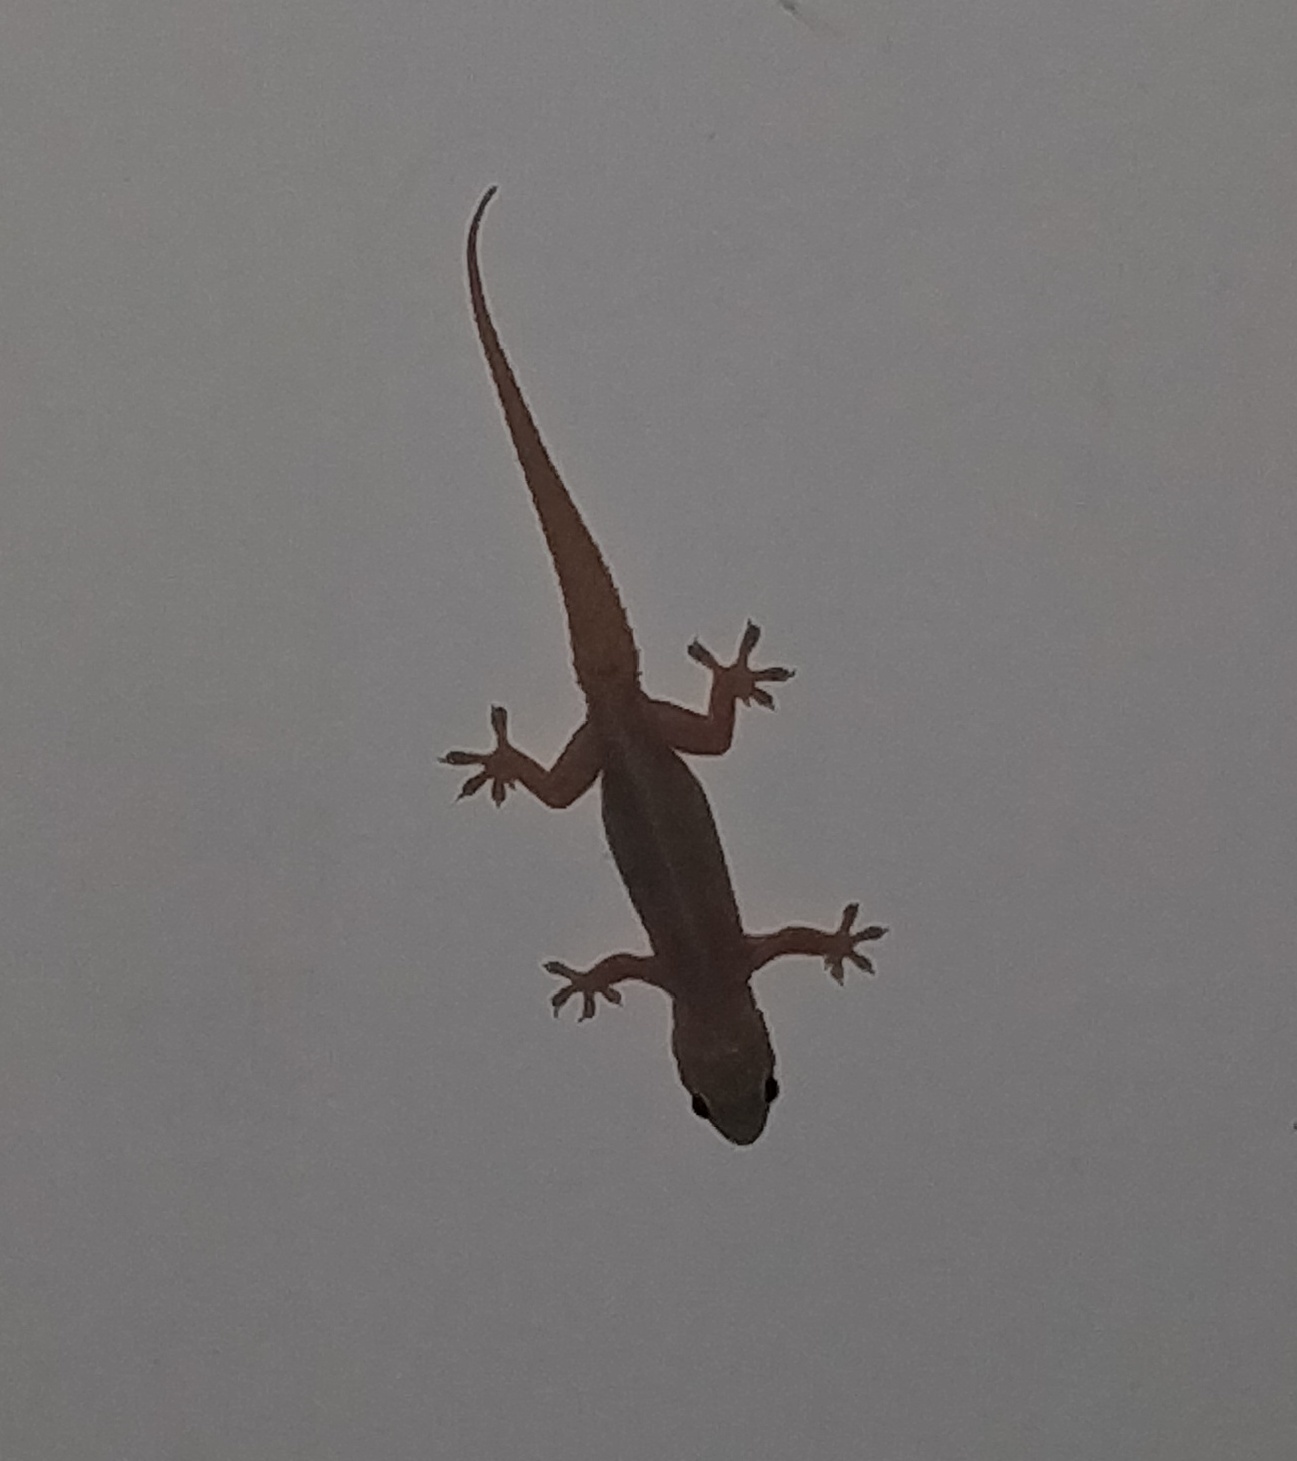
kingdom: Animalia
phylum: Chordata
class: Squamata
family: Gekkonidae
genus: Hemidactylus
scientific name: Hemidactylus frenatus
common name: Common house gecko
